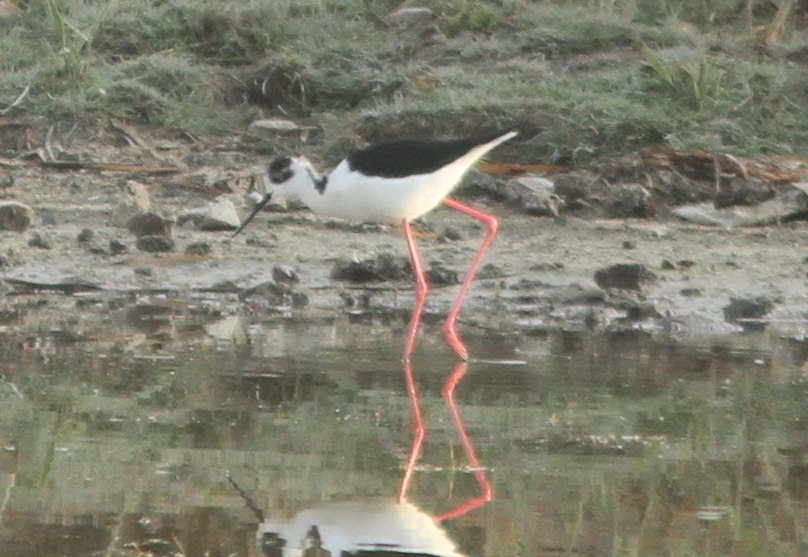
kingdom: Animalia
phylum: Chordata
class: Aves
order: Charadriiformes
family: Recurvirostridae
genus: Himantopus
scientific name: Himantopus himantopus
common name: Black-winged stilt
